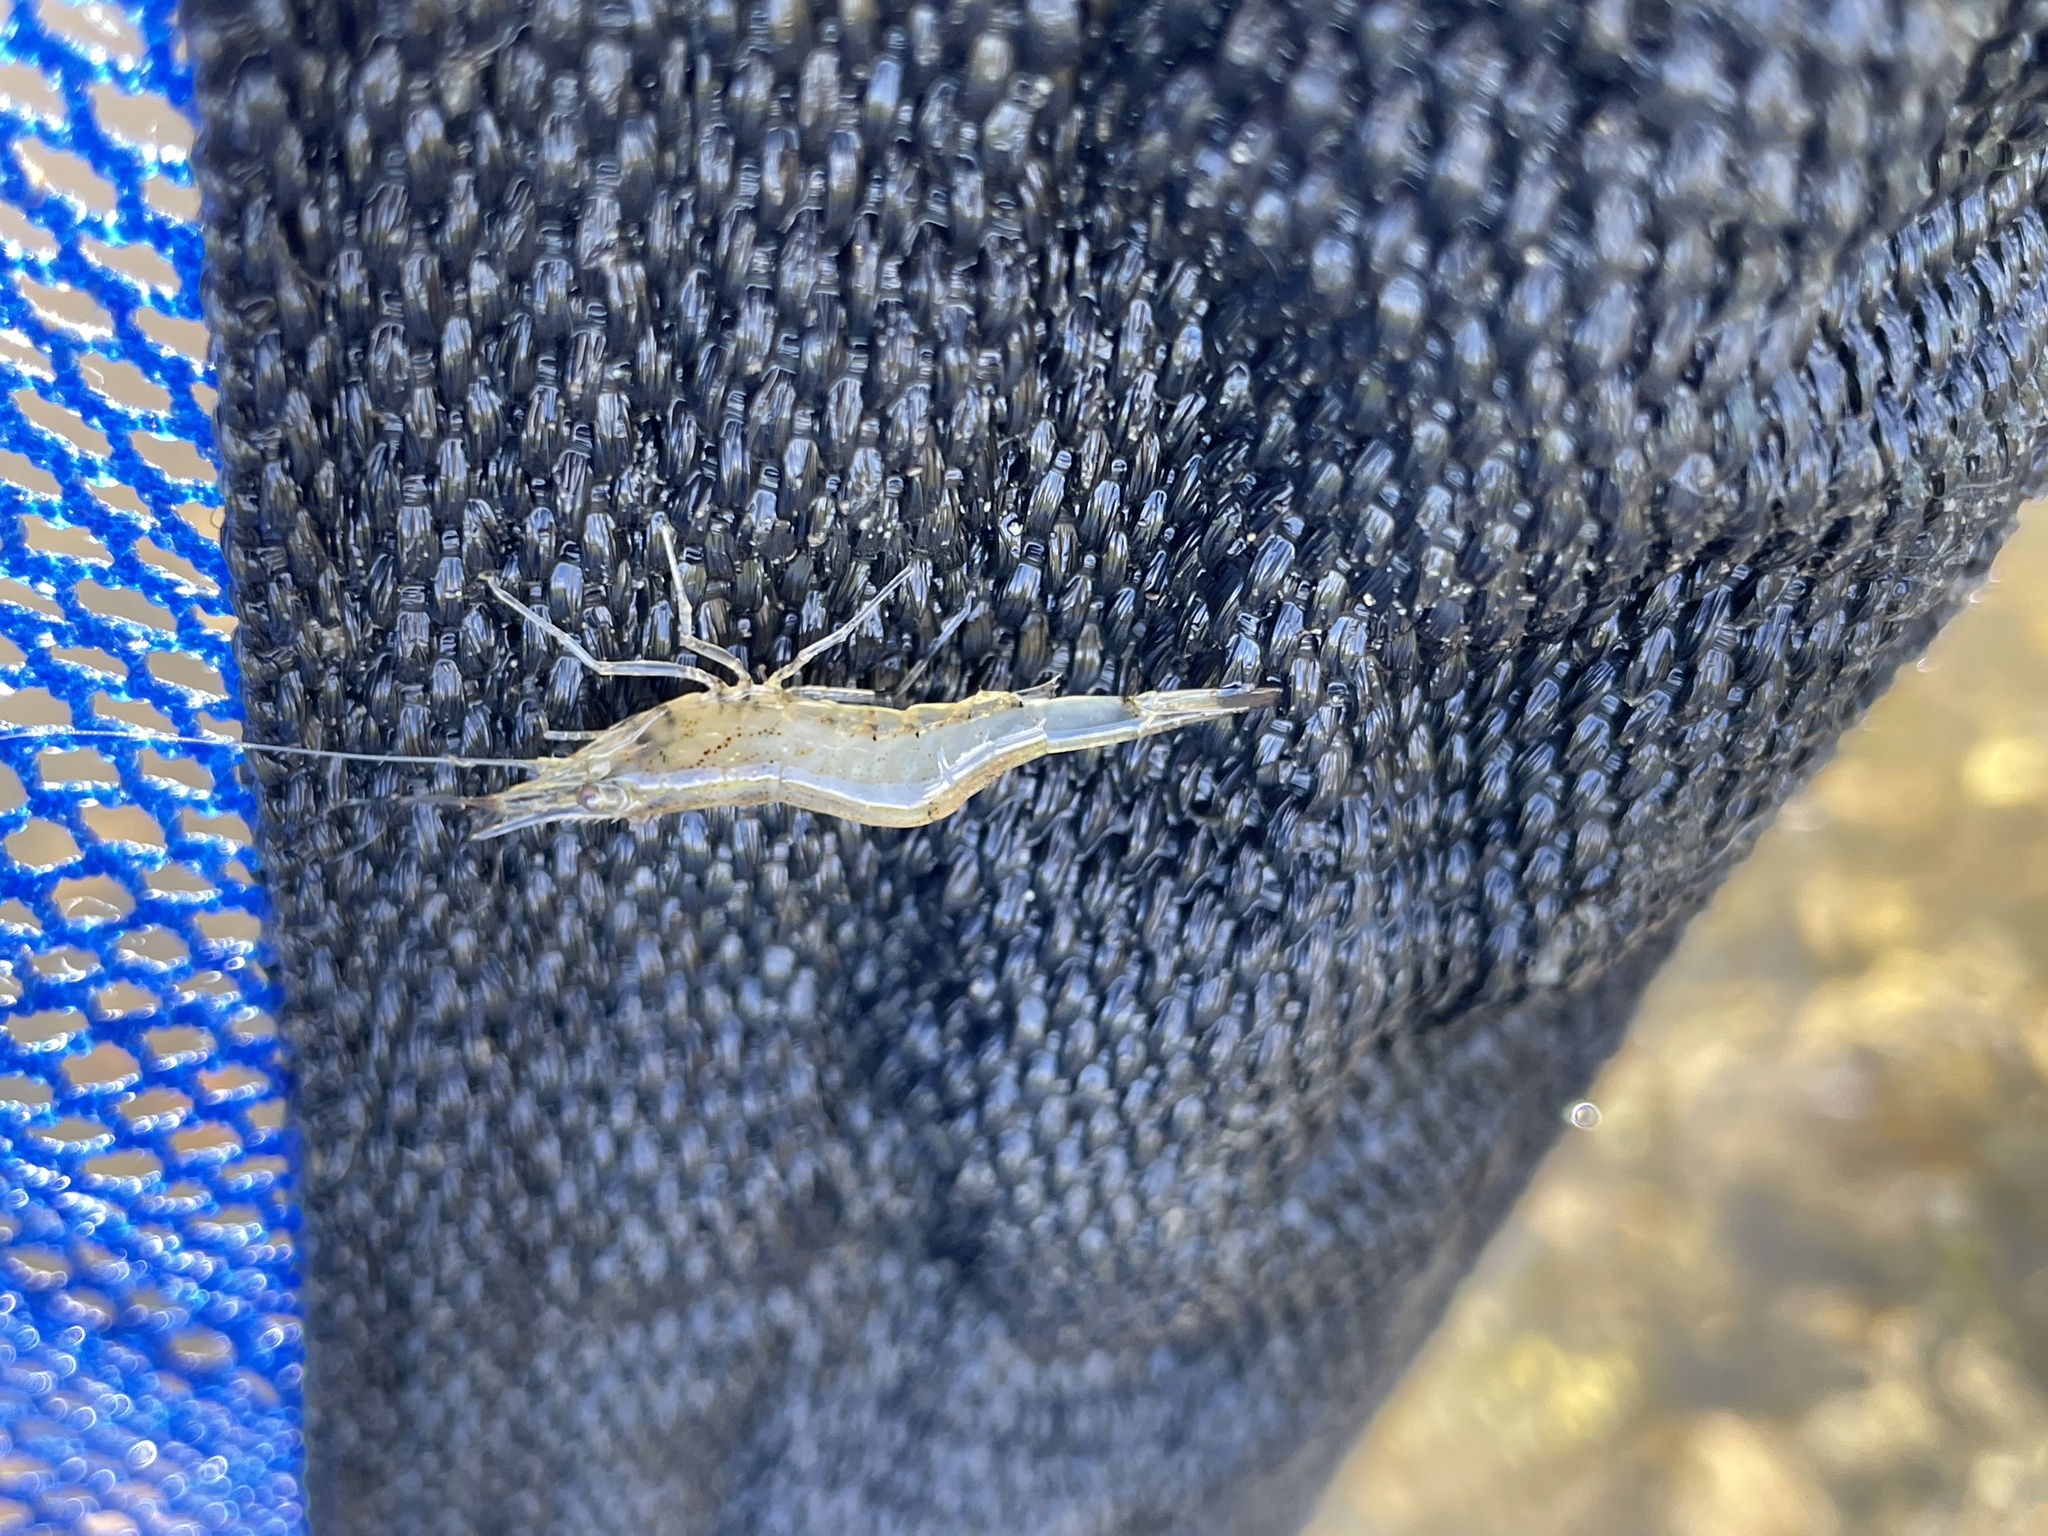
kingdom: Animalia
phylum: Arthropoda
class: Malacostraca
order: Decapoda
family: Atyidae
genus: Paratya
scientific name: Paratya curvirostris
